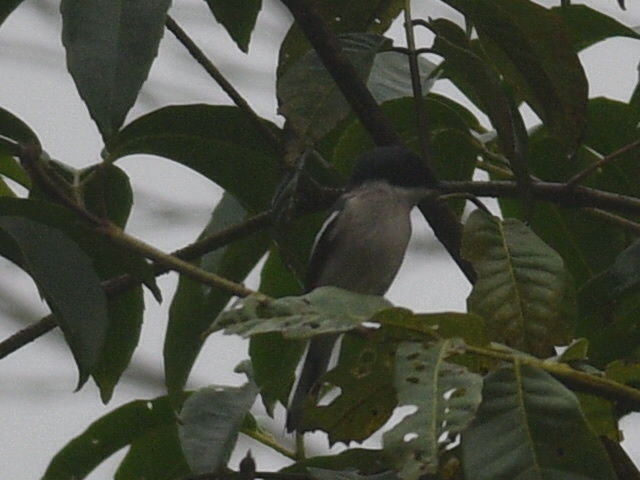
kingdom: Animalia
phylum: Chordata
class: Aves
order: Passeriformes
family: Tephrodornithidae
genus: Hemipus
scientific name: Hemipus picatus
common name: Bar-winged flycatcher-shrike
